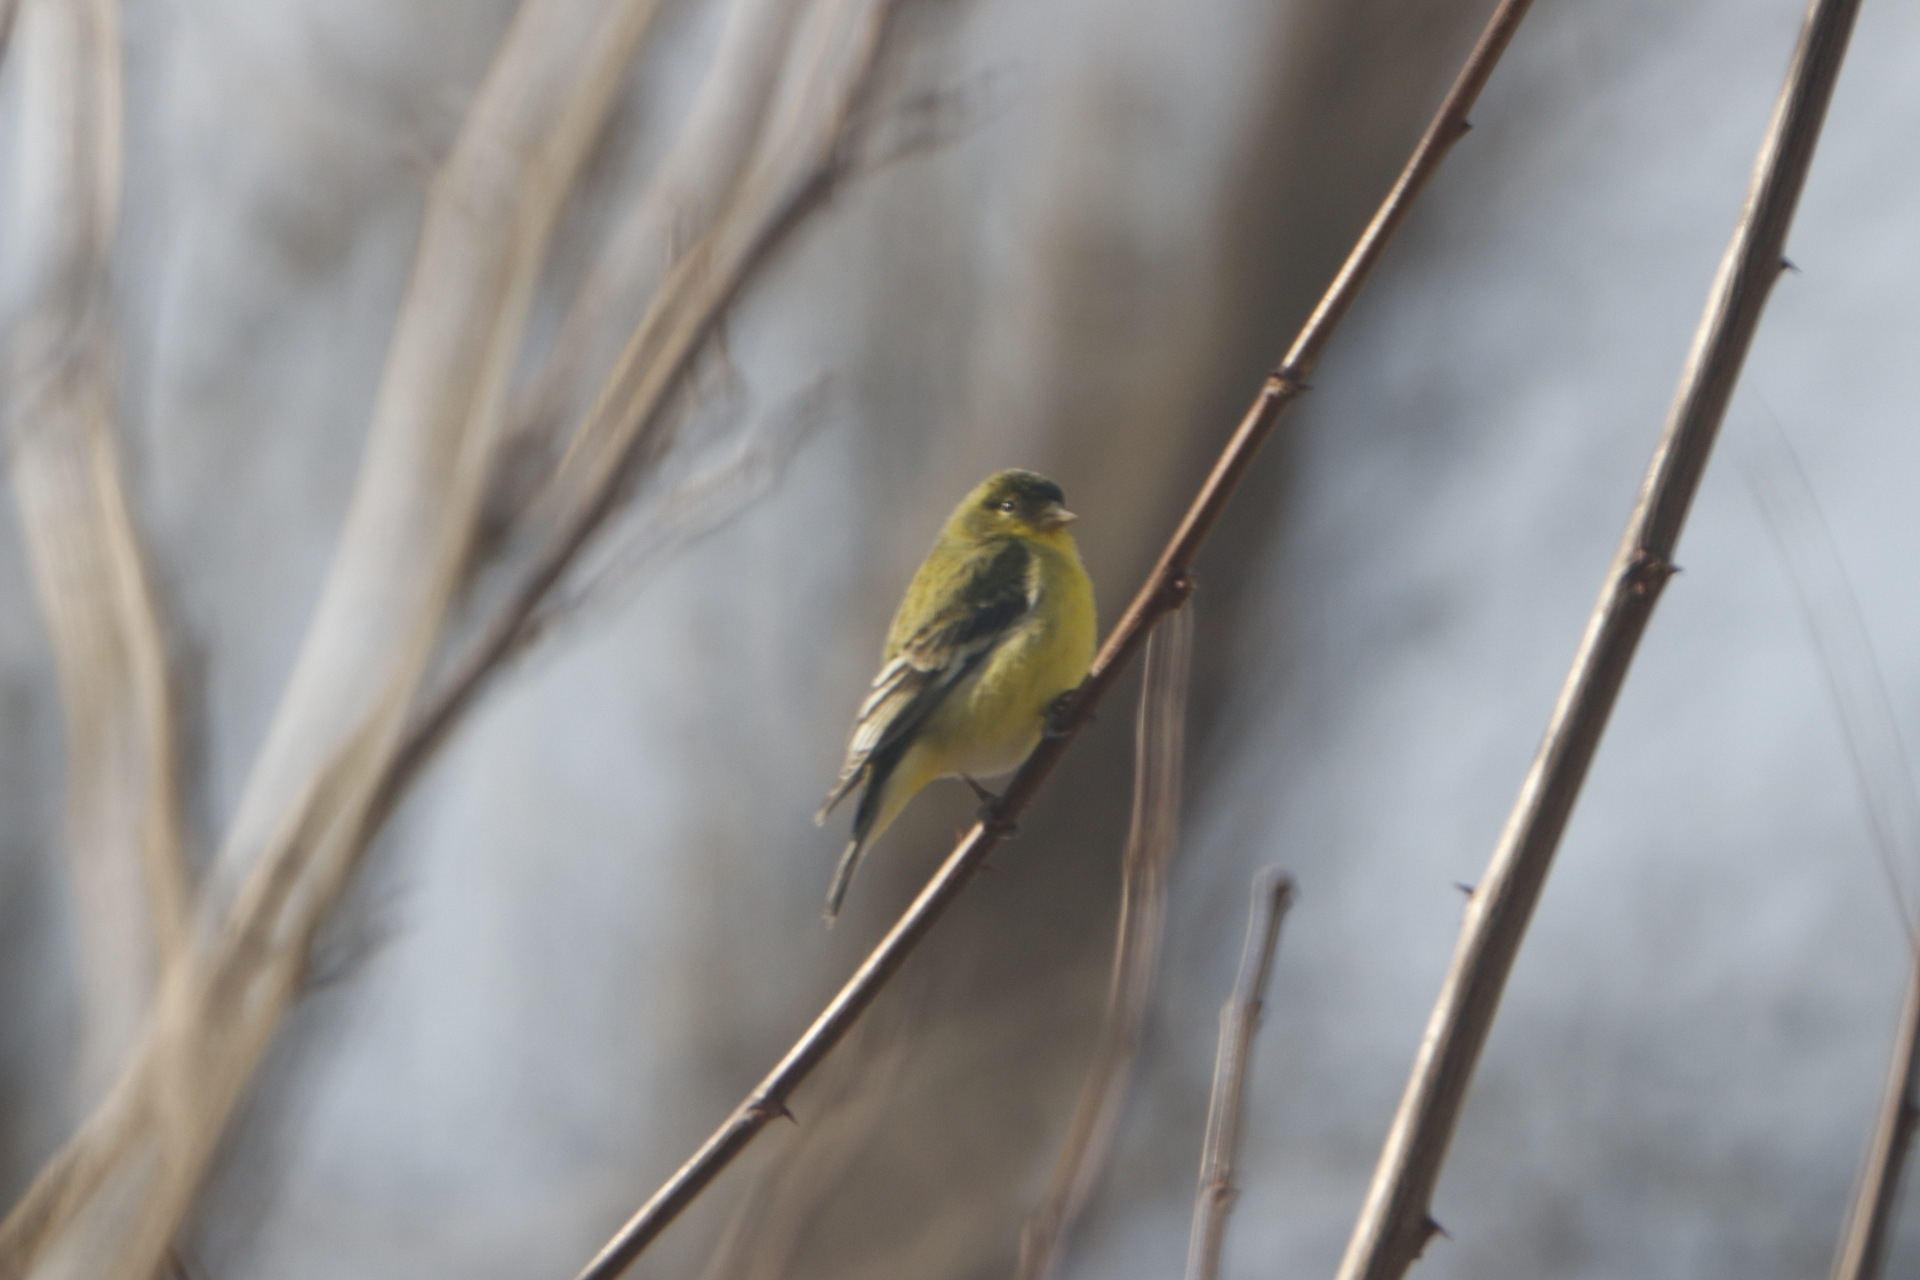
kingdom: Animalia
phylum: Chordata
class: Aves
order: Passeriformes
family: Fringillidae
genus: Spinus
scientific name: Spinus psaltria
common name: Lesser goldfinch
